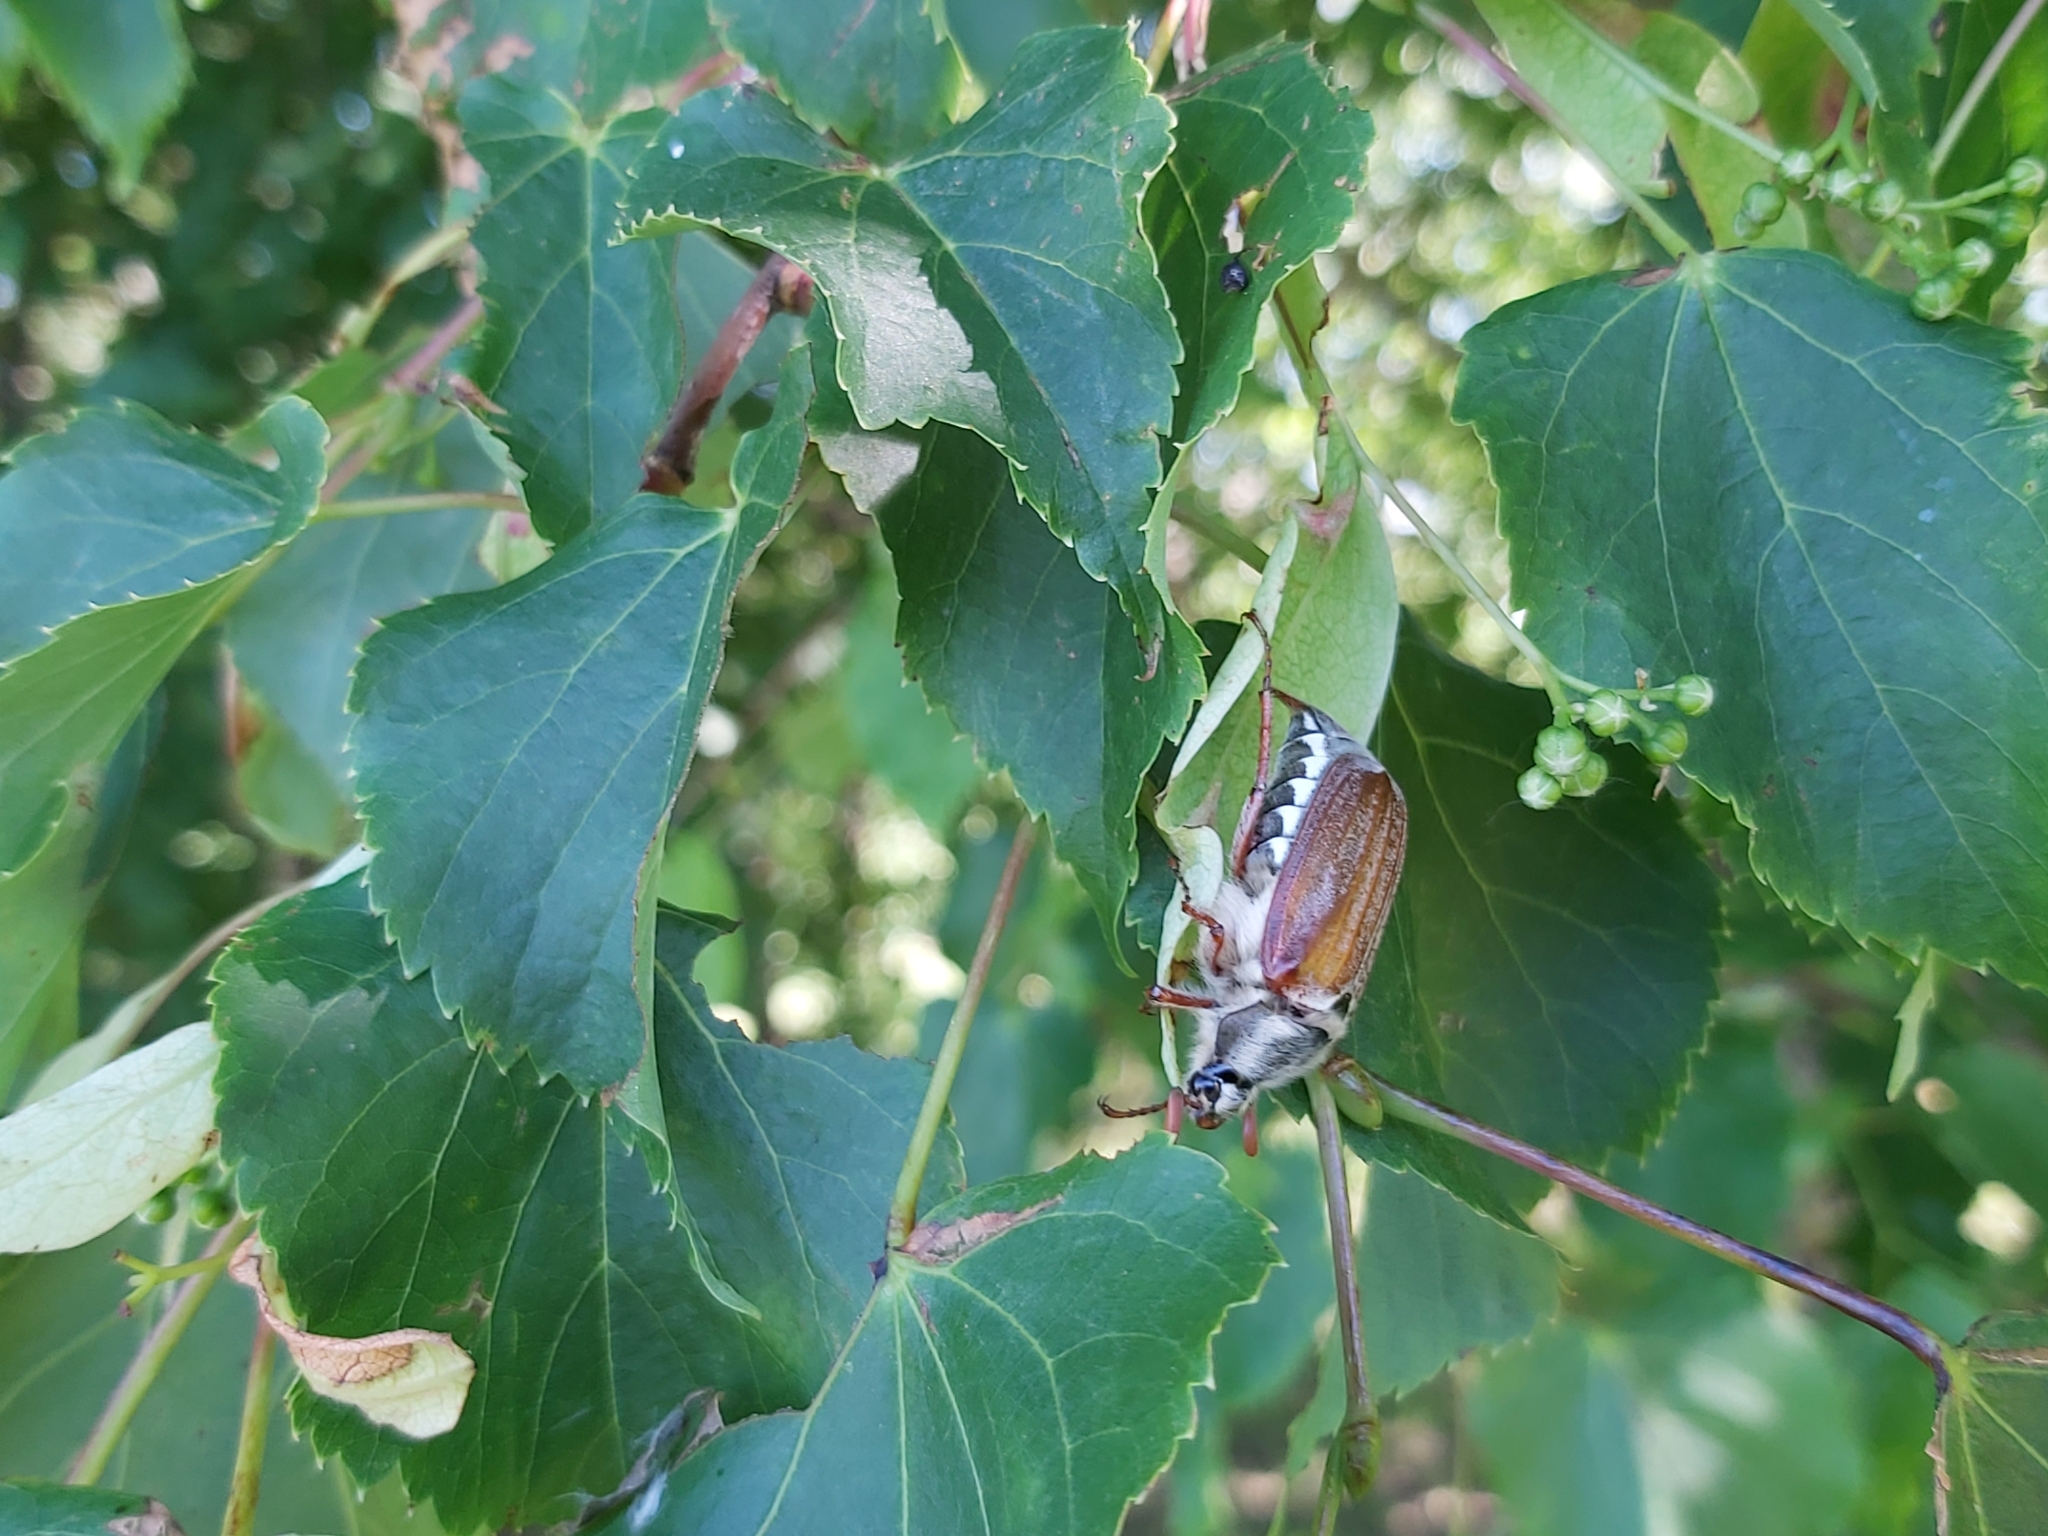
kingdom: Animalia
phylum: Arthropoda
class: Insecta
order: Coleoptera
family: Scarabaeidae
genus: Melolontha
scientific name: Melolontha melolontha
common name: Cockchafer maybeetle
